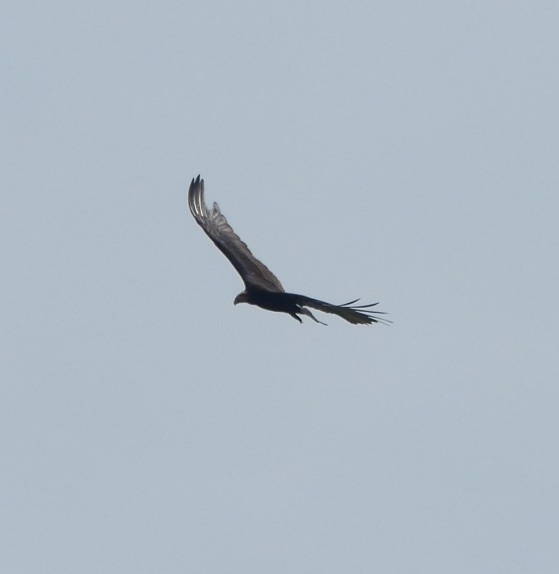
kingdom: Animalia
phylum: Chordata
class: Aves
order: Accipitriformes
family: Cathartidae
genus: Cathartes
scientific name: Cathartes burrovianus
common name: Lesser yellow-headed vulture
